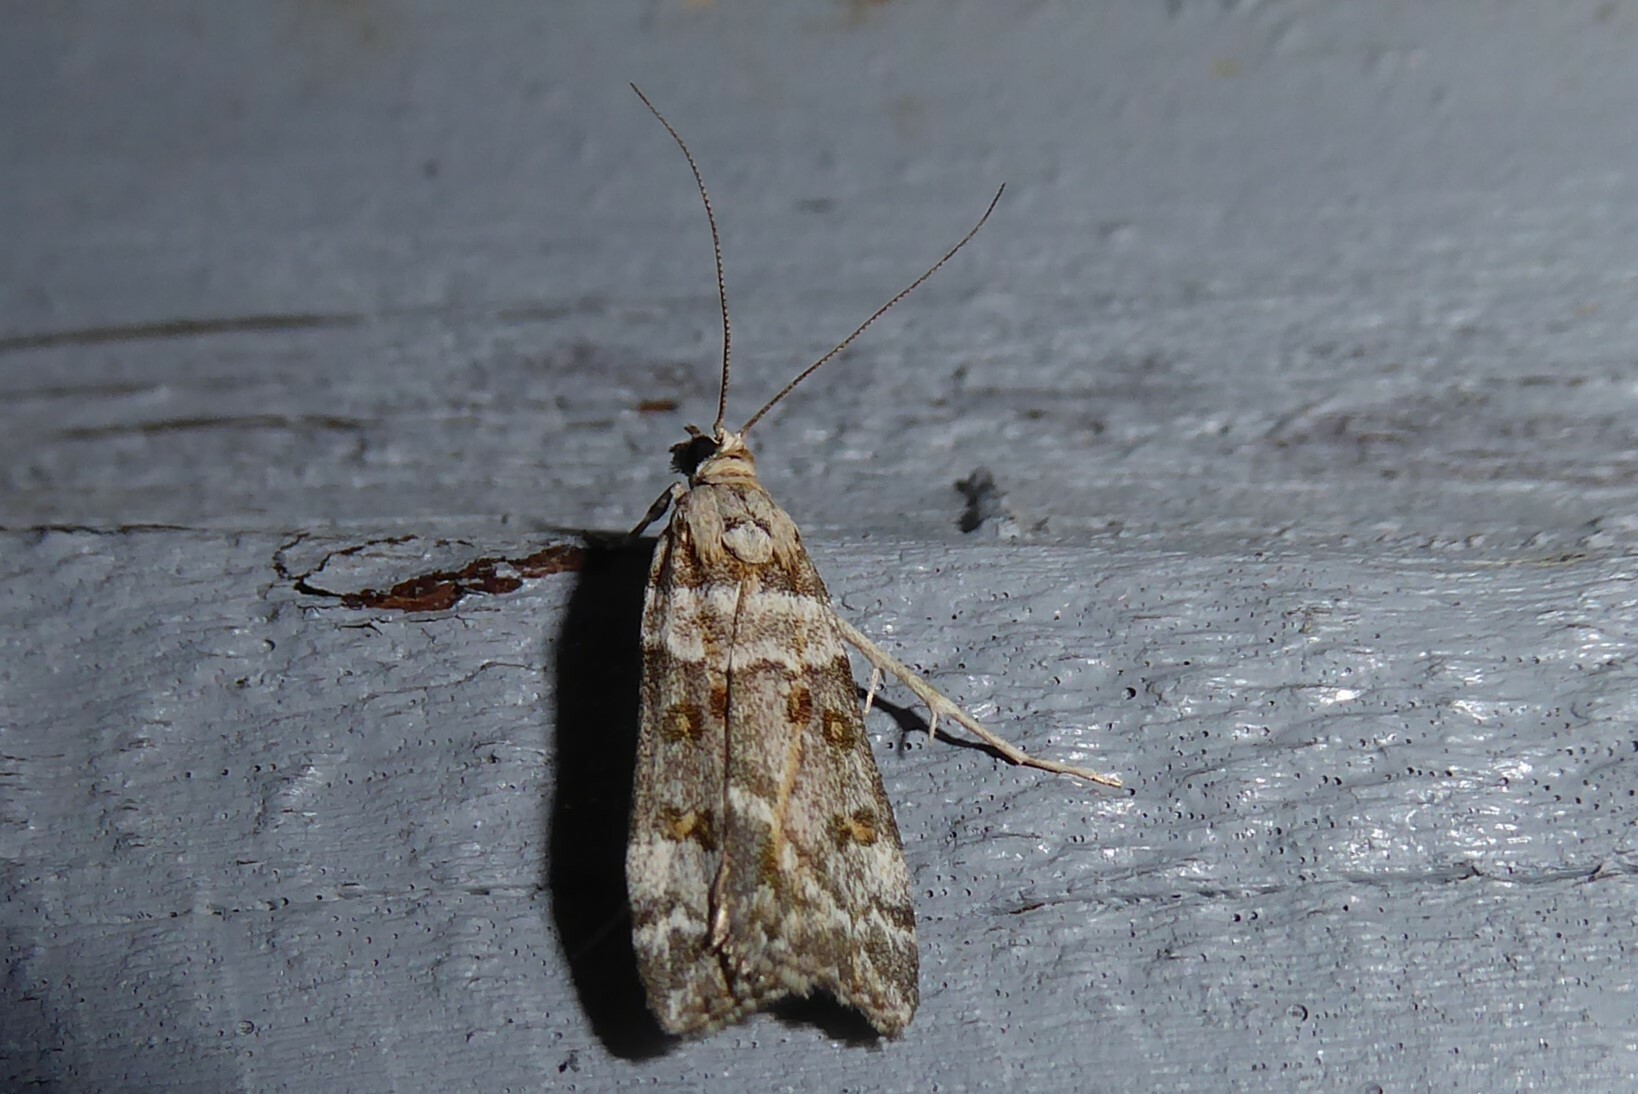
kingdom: Animalia
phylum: Arthropoda
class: Insecta
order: Lepidoptera
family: Crambidae
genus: Scoparia
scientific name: Scoparia tetracycla
